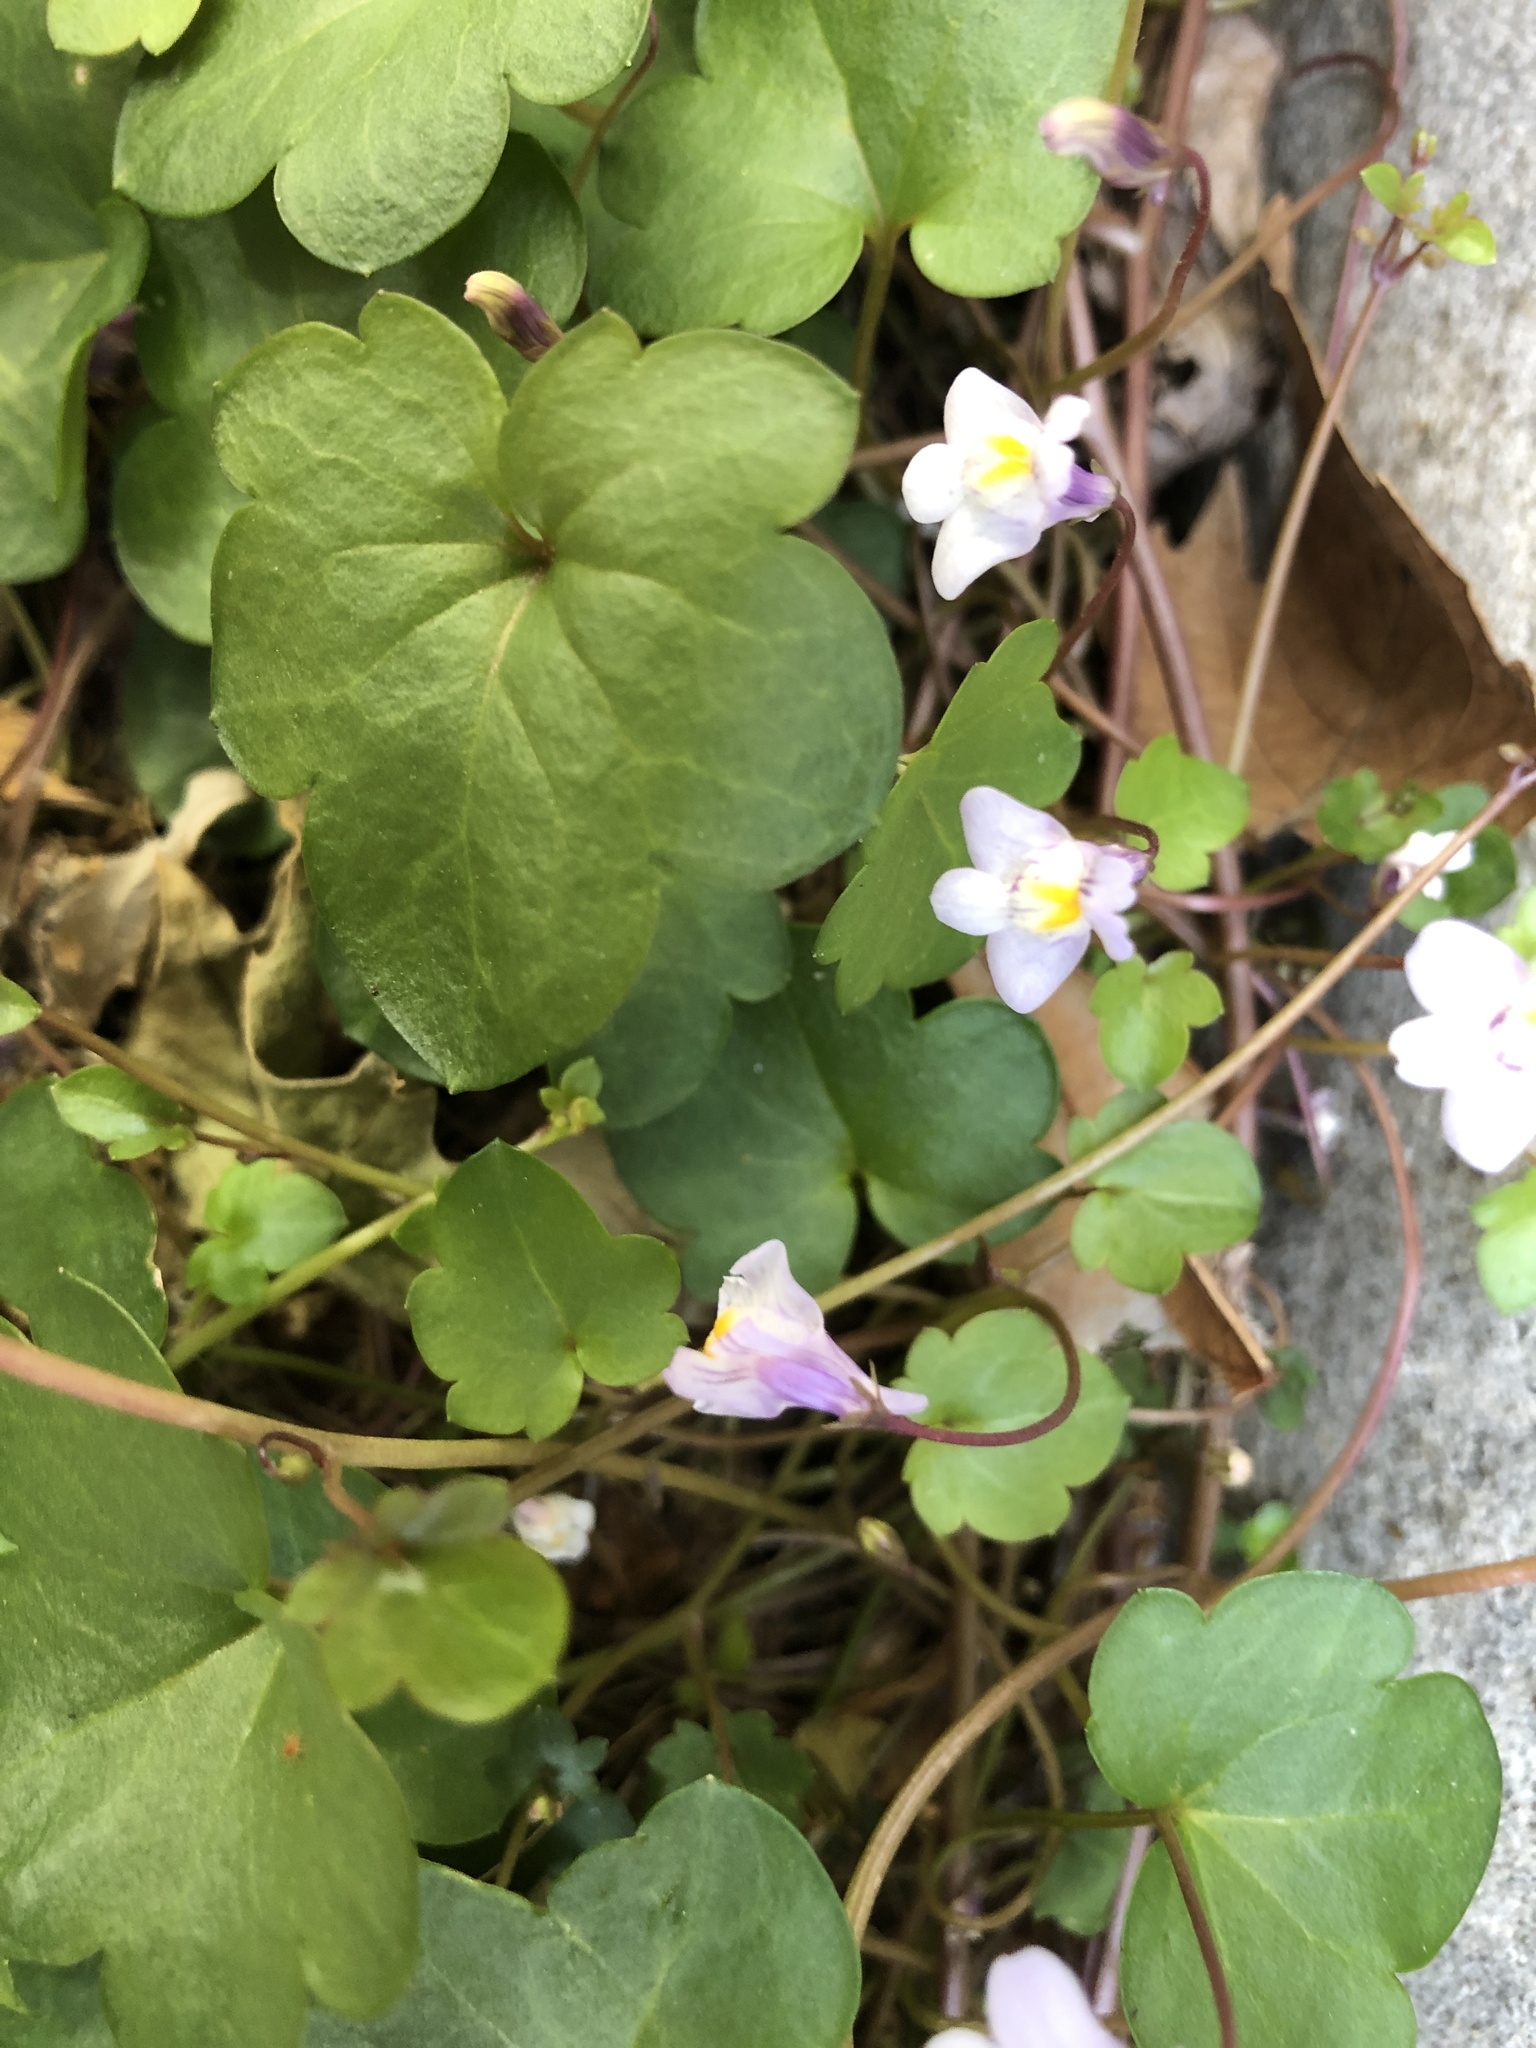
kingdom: Plantae
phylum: Tracheophyta
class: Magnoliopsida
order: Lamiales
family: Plantaginaceae
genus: Cymbalaria
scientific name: Cymbalaria muralis
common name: Ivy-leaved toadflax
